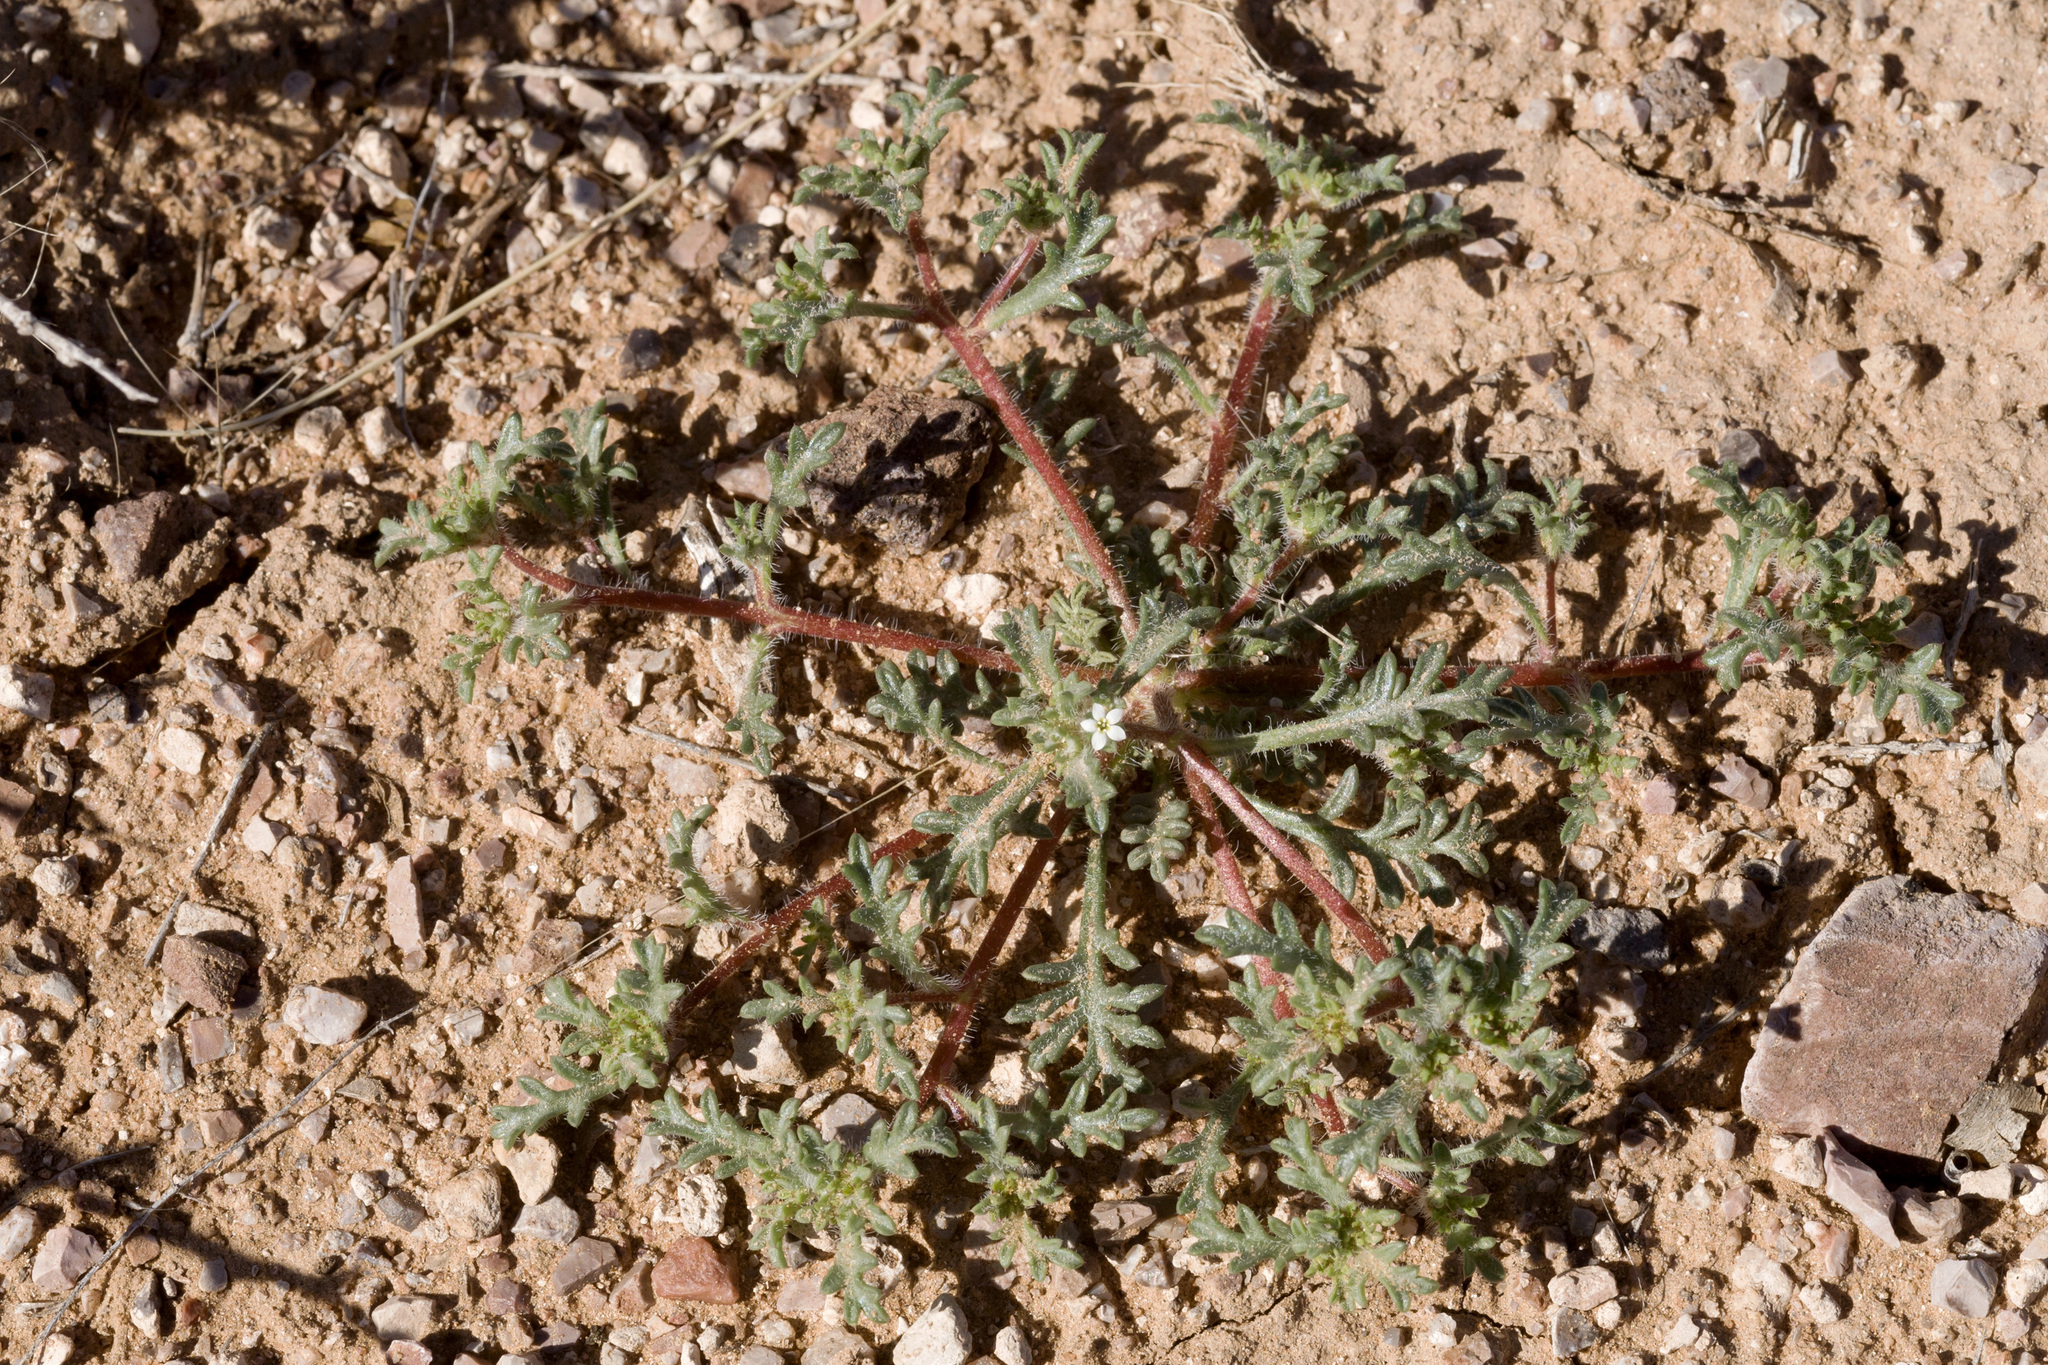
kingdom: Plantae
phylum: Tracheophyta
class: Magnoliopsida
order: Ericales
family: Polemoniaceae
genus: Ipomopsis
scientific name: Ipomopsis polycladon
